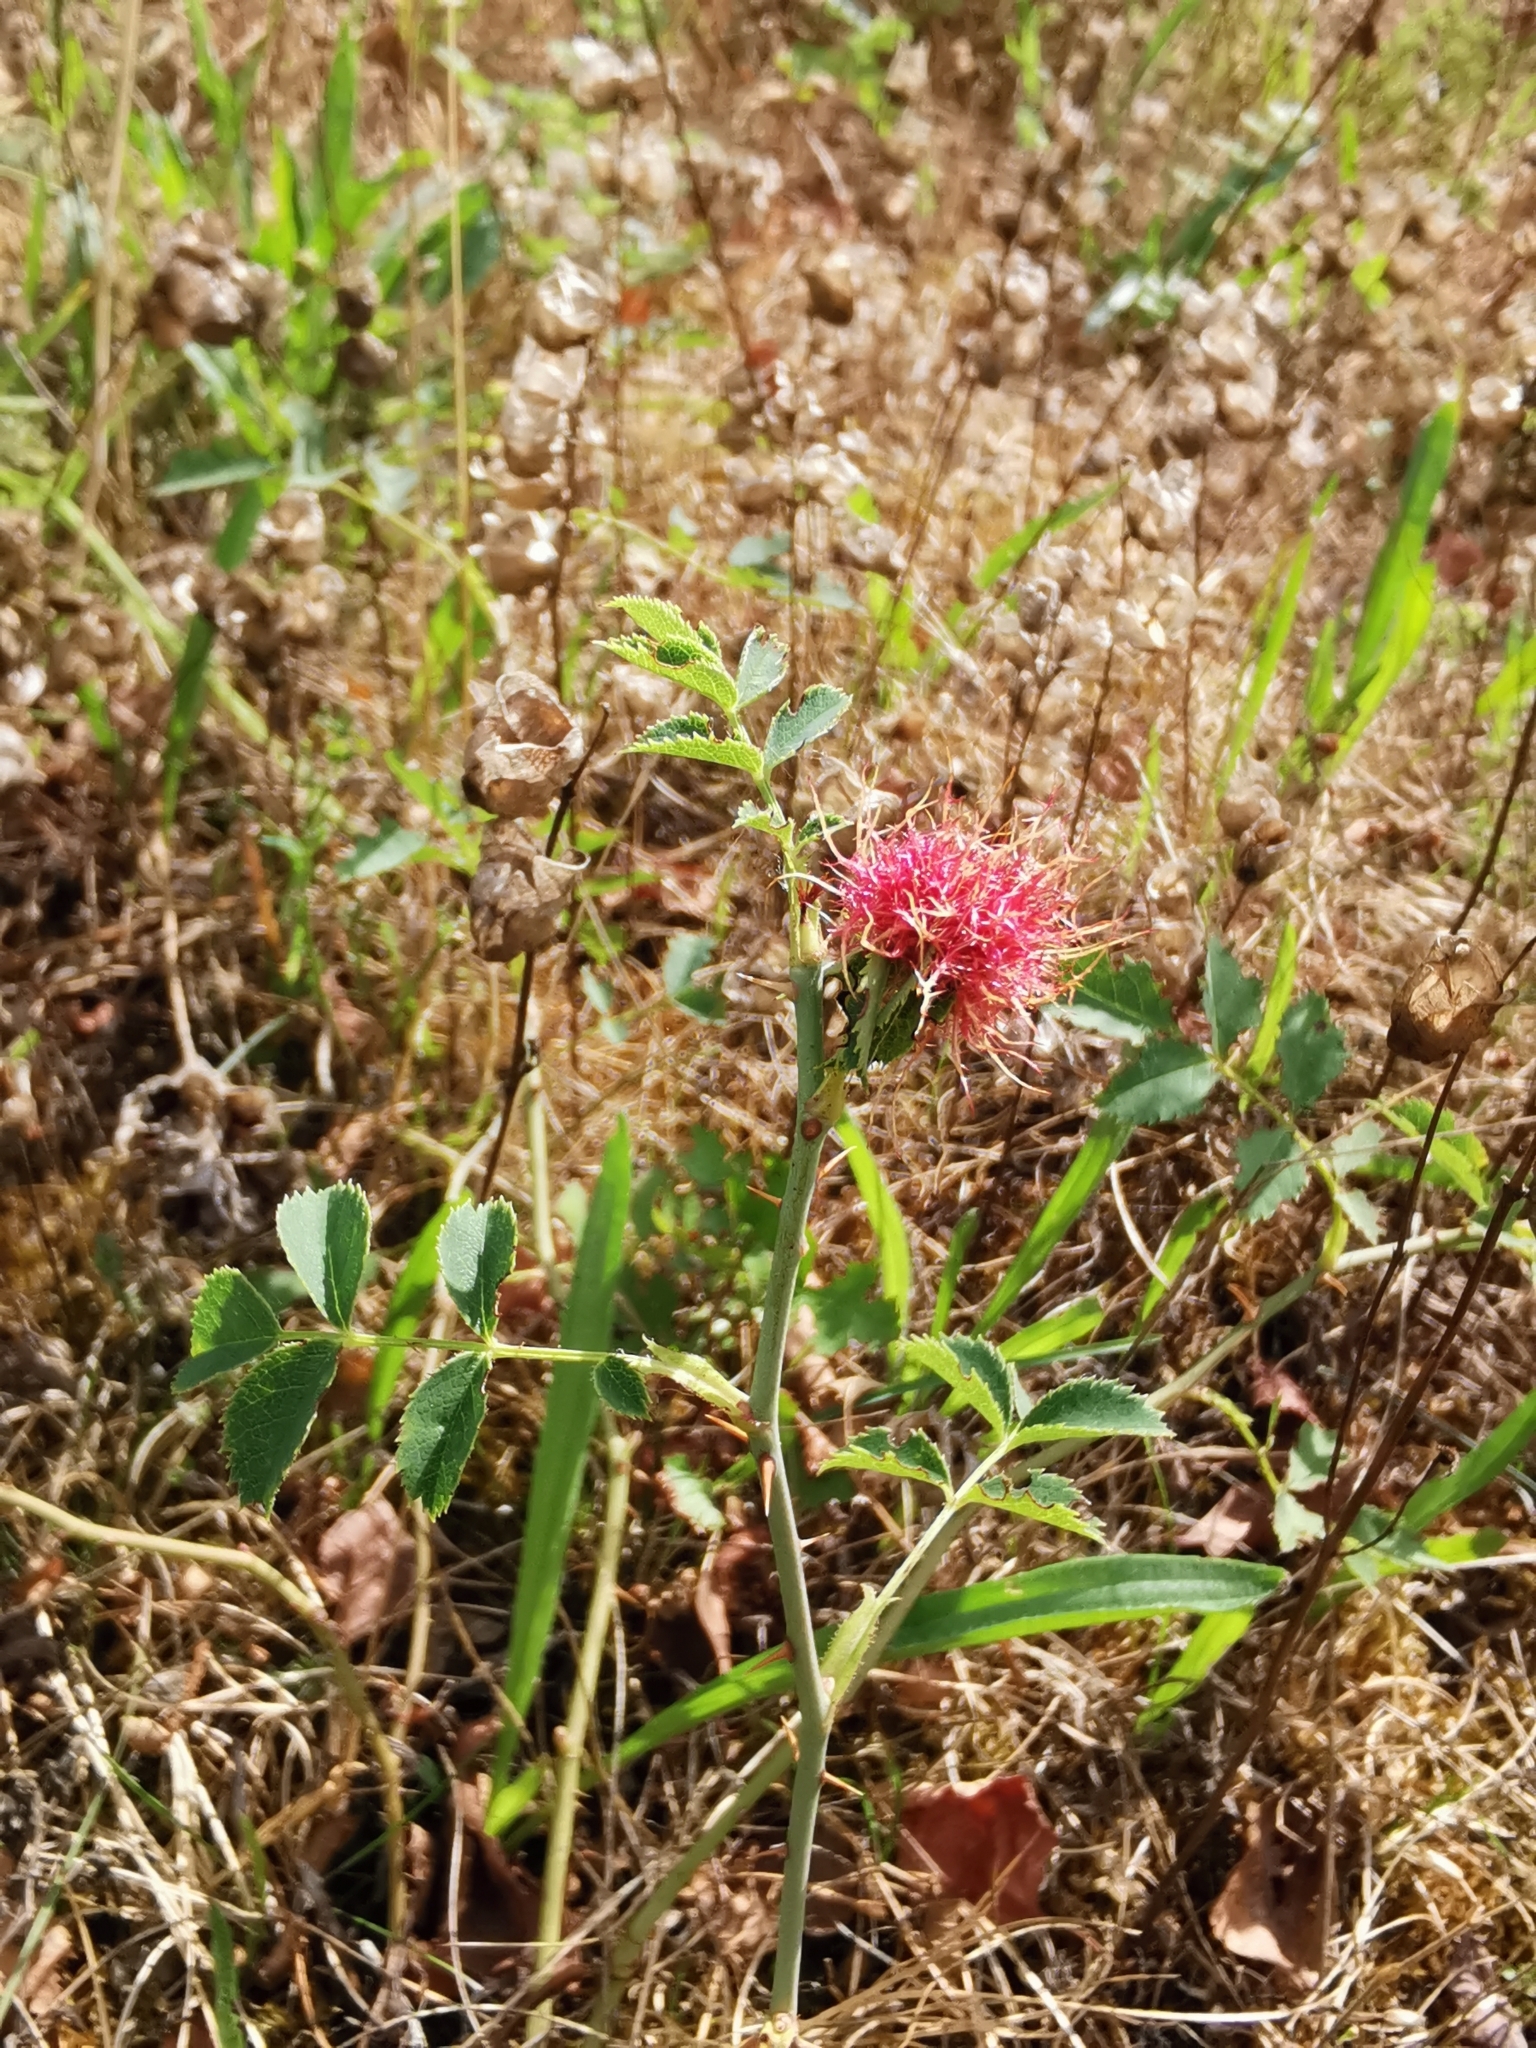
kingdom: Animalia
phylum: Arthropoda
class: Insecta
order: Hymenoptera
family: Cynipidae
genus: Diplolepis
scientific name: Diplolepis rosae
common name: Bedeguar gall
